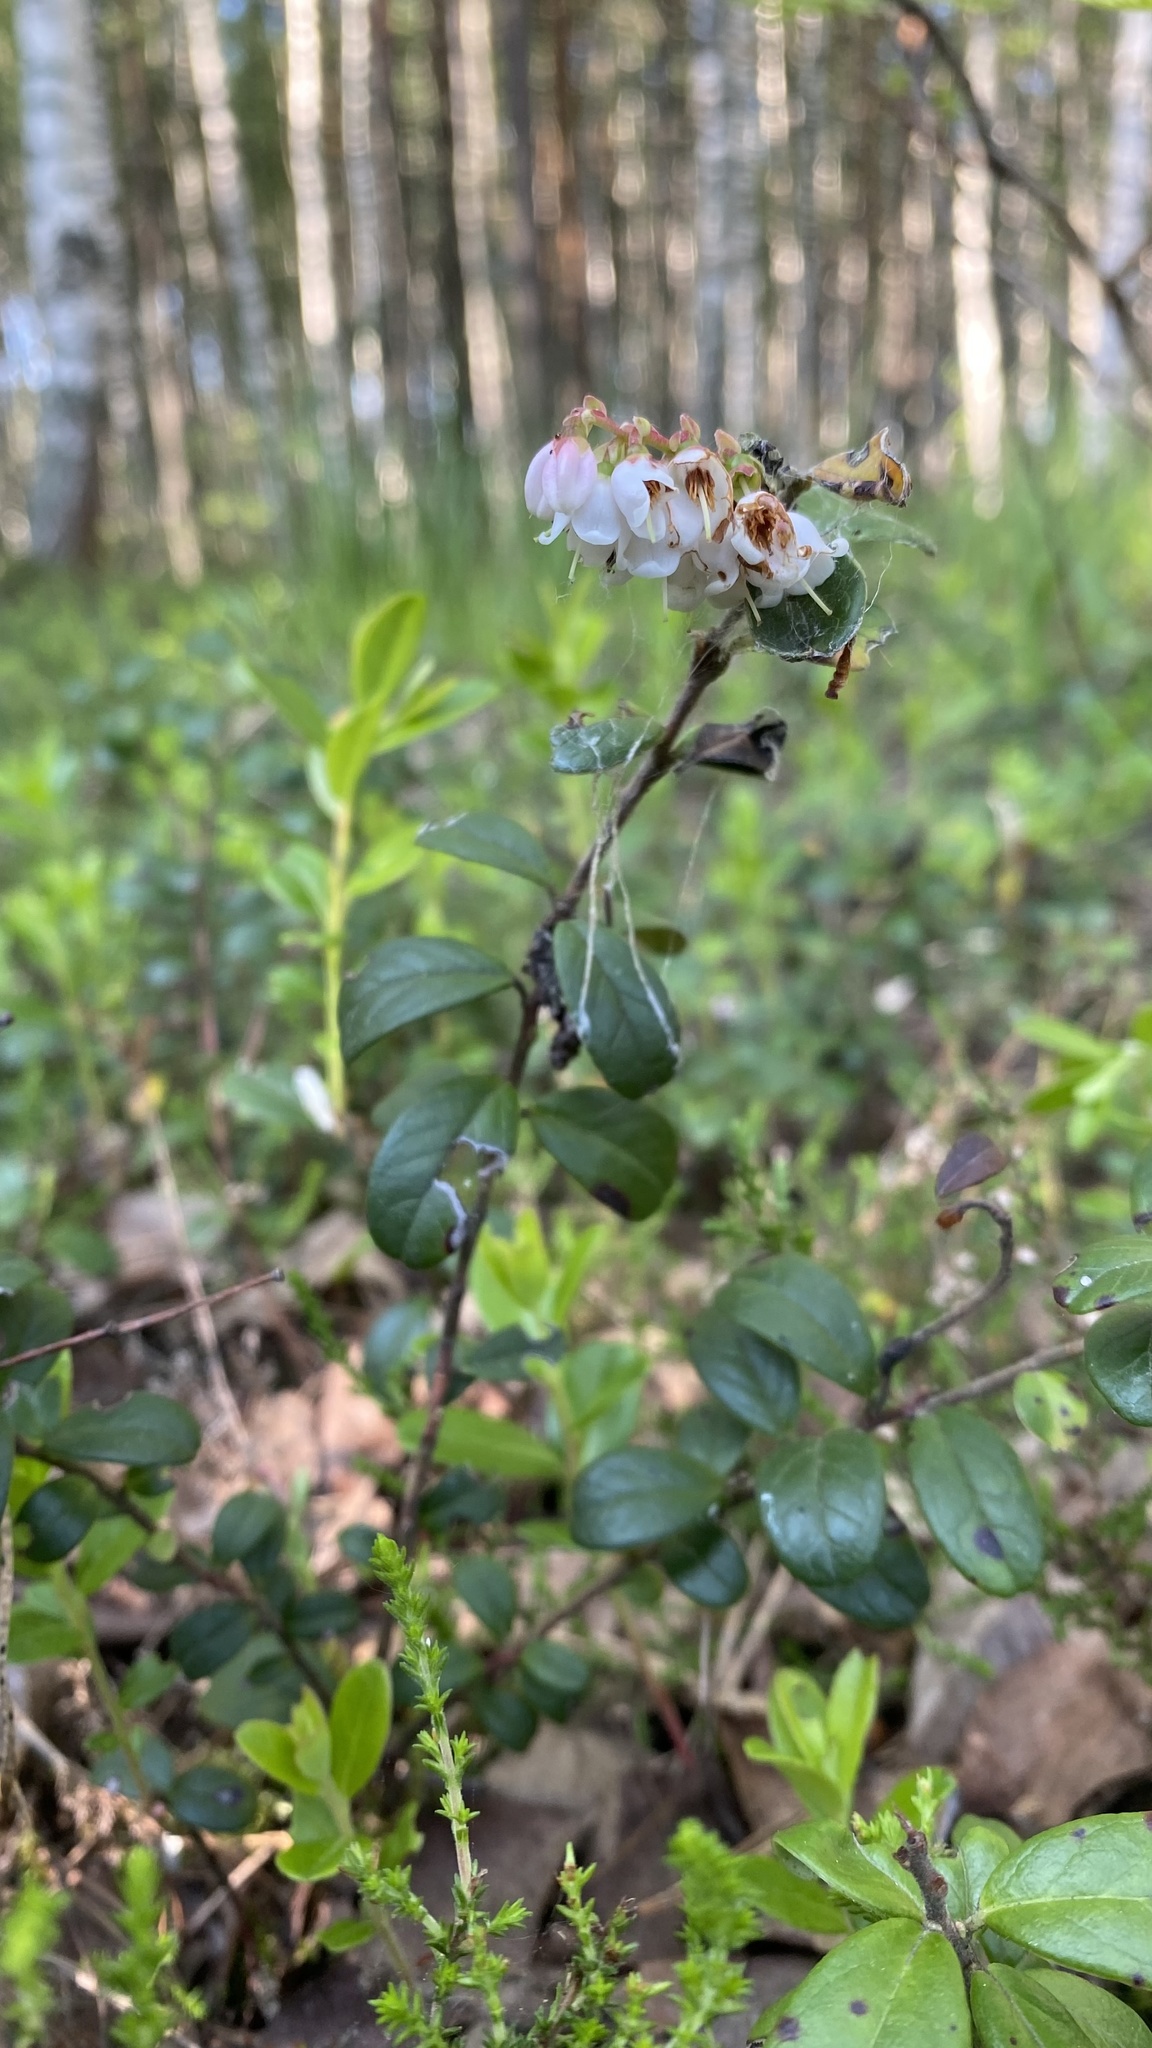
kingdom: Plantae
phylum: Tracheophyta
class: Magnoliopsida
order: Ericales
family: Ericaceae
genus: Vaccinium
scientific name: Vaccinium vitis-idaea
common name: Cowberry
